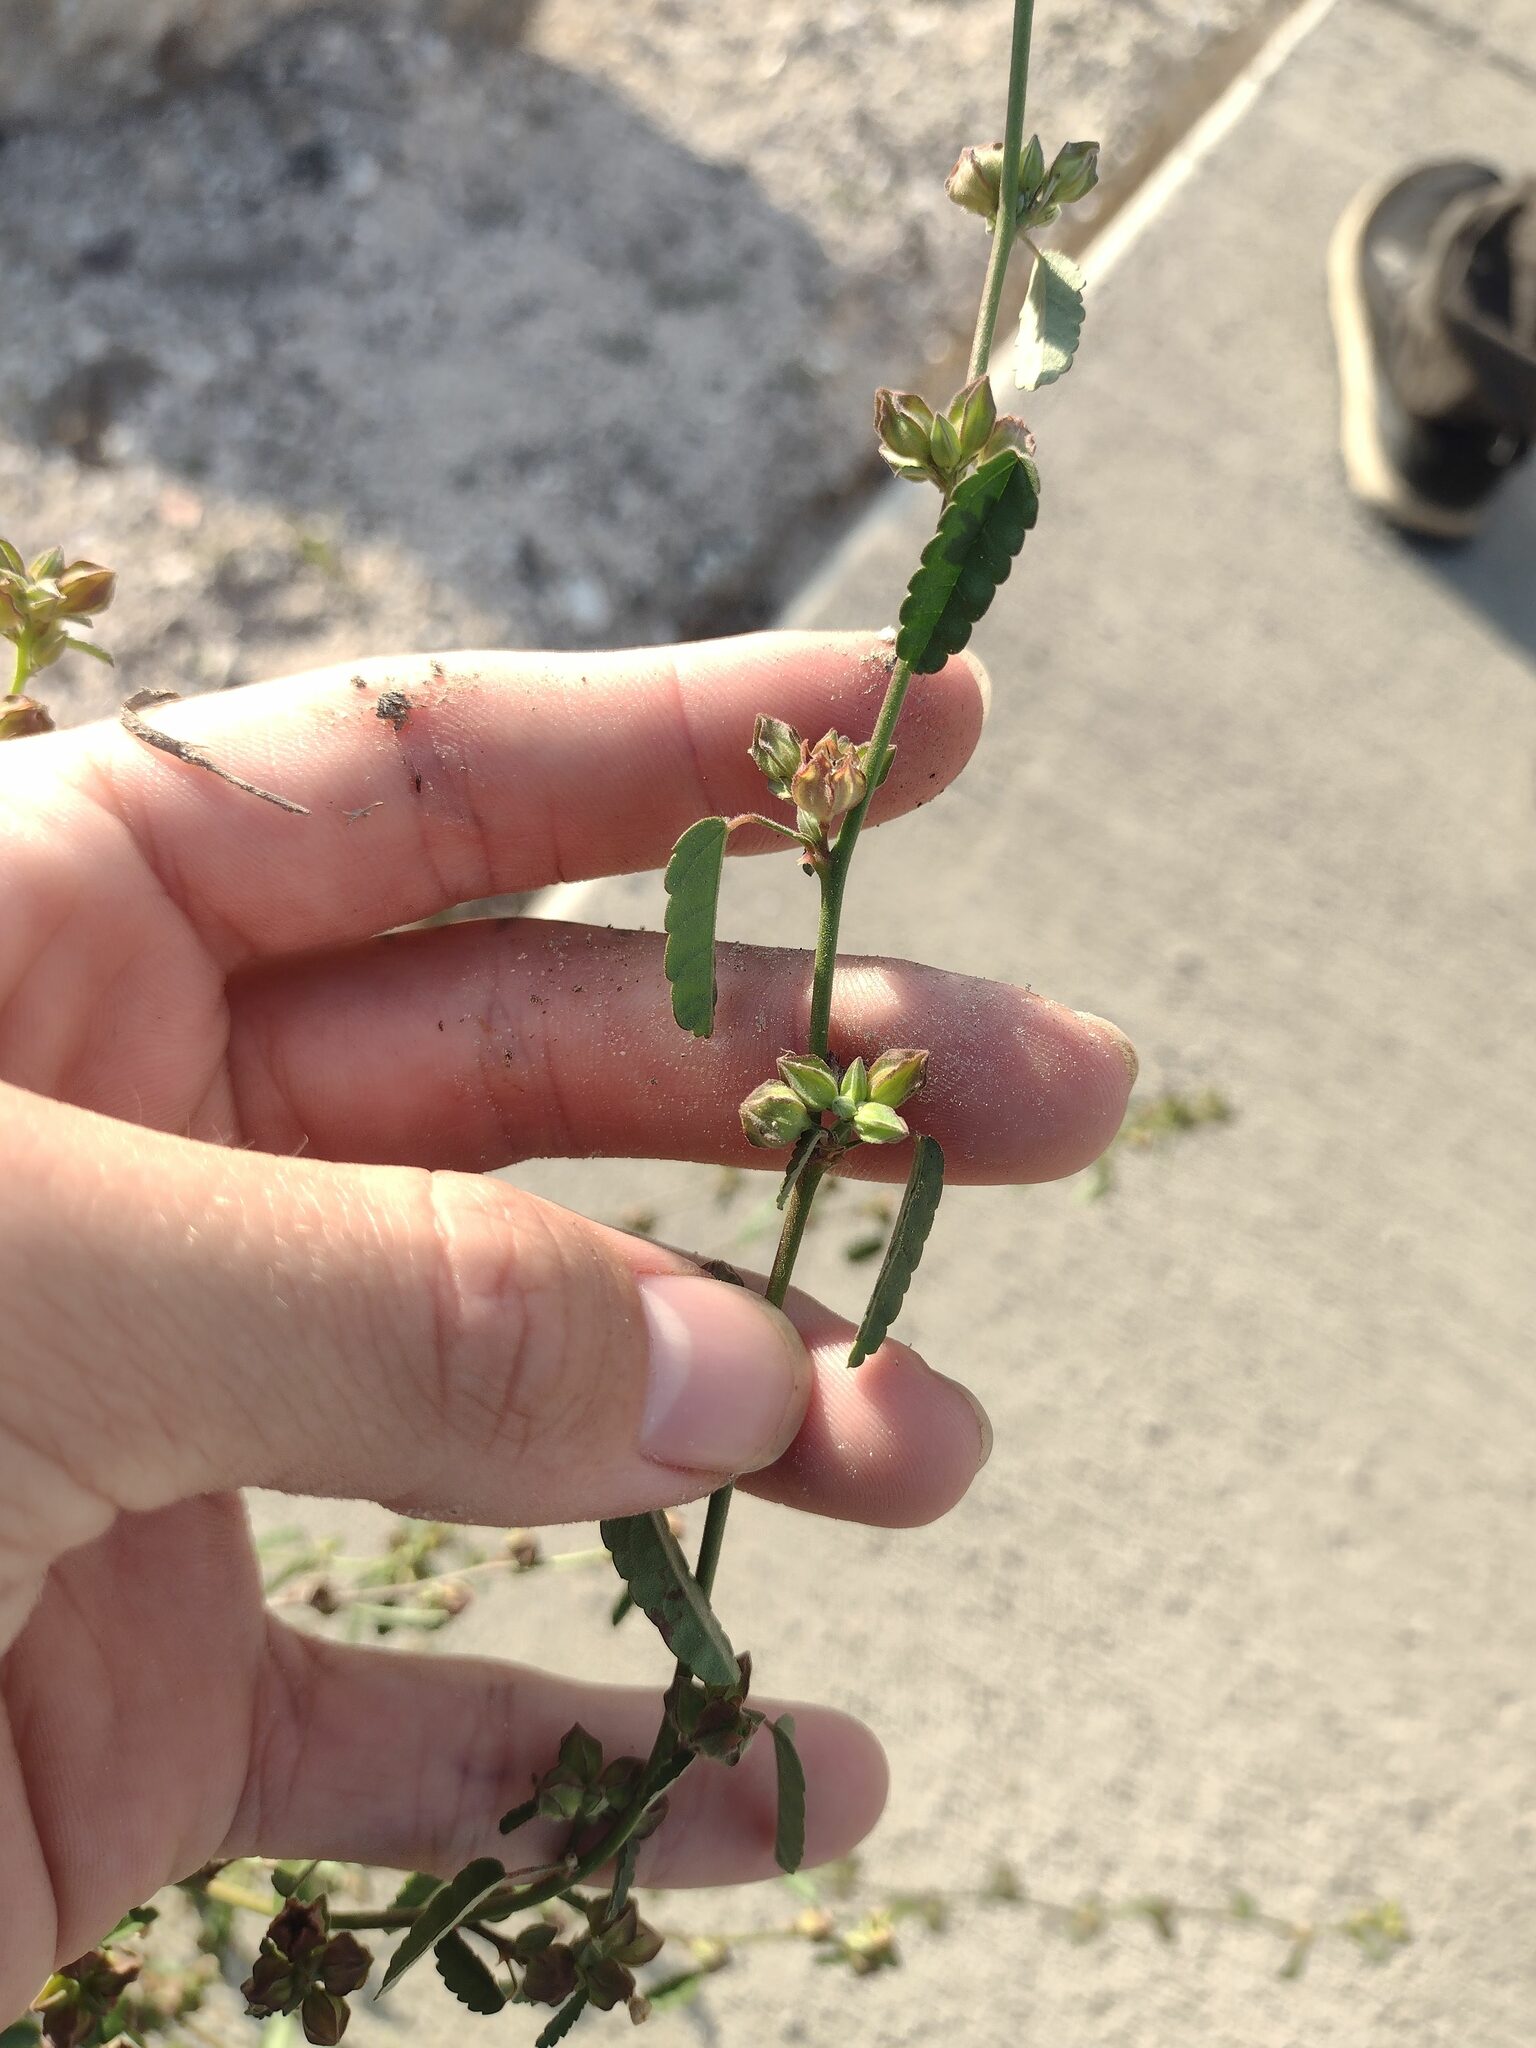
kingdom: Plantae
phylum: Tracheophyta
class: Magnoliopsida
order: Malvales
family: Malvaceae
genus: Sida
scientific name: Sida spinosa
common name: Prickly fanpetals
